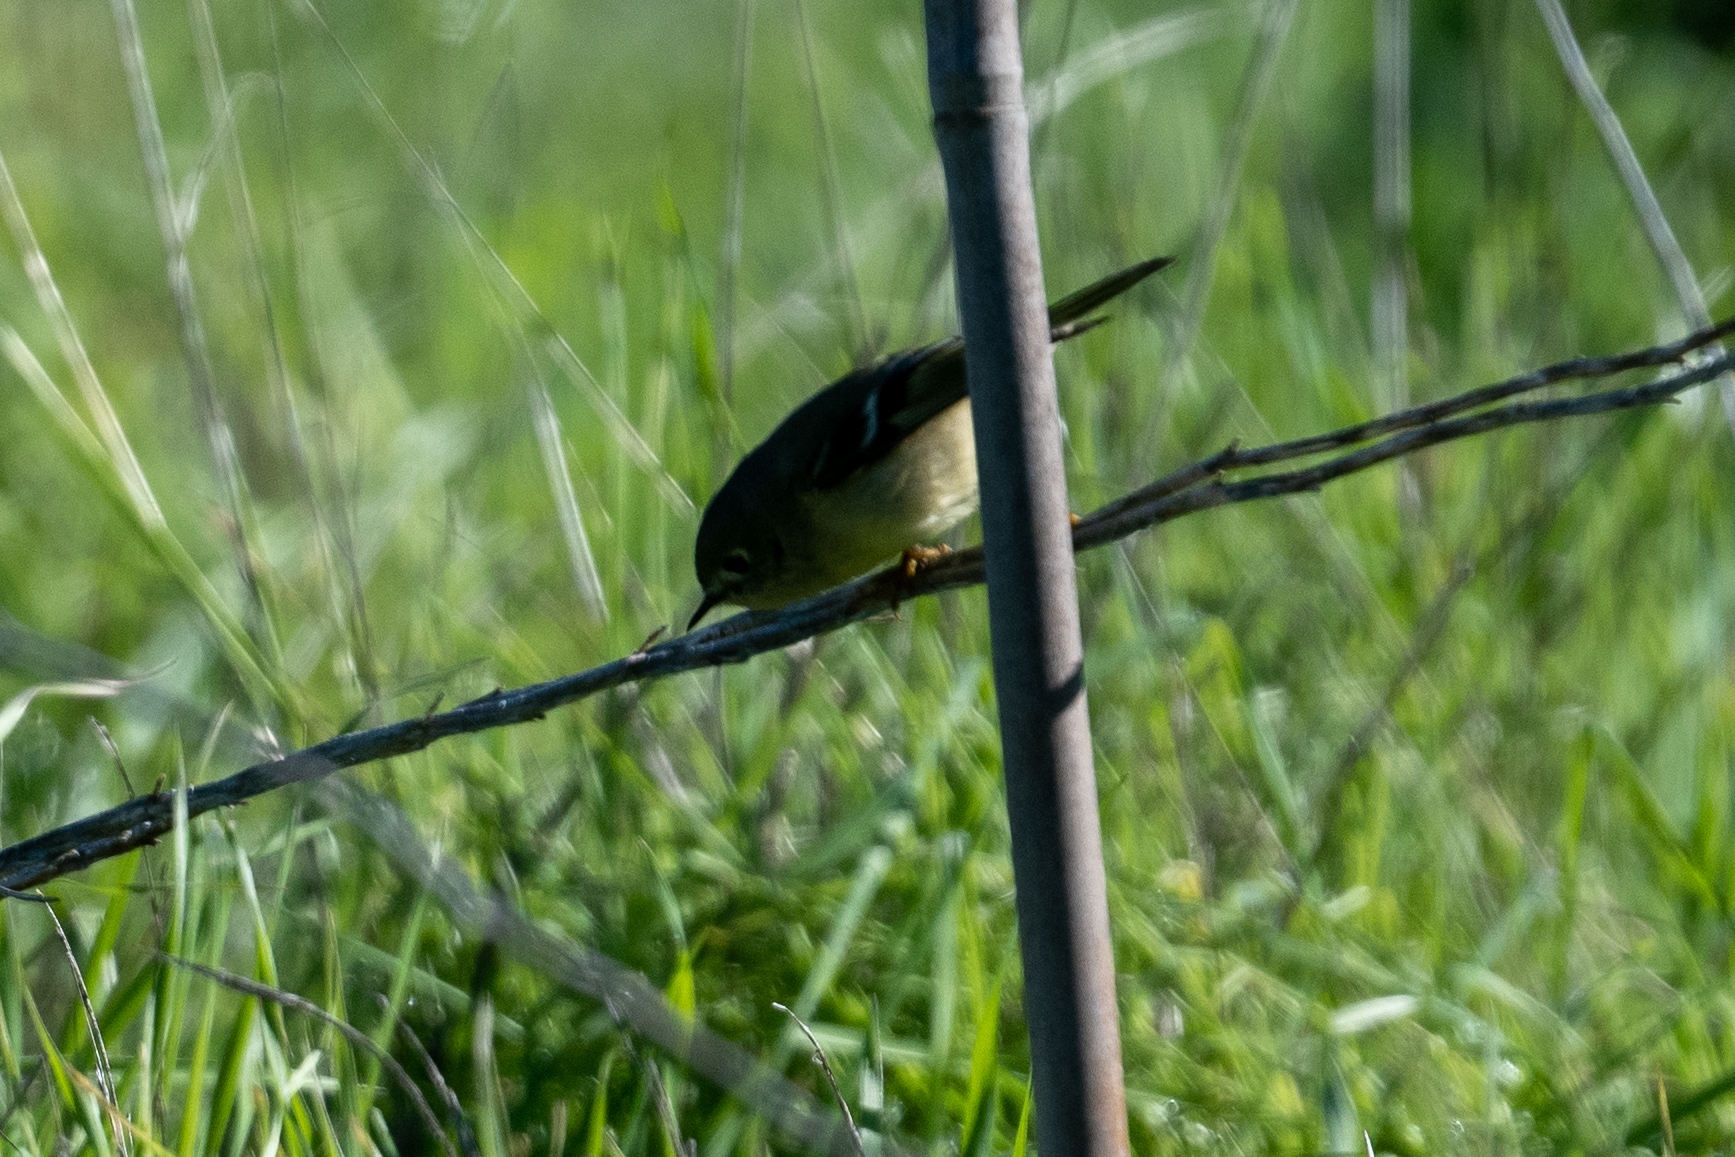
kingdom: Animalia
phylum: Chordata
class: Aves
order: Passeriformes
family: Regulidae
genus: Regulus
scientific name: Regulus calendula
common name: Ruby-crowned kinglet
